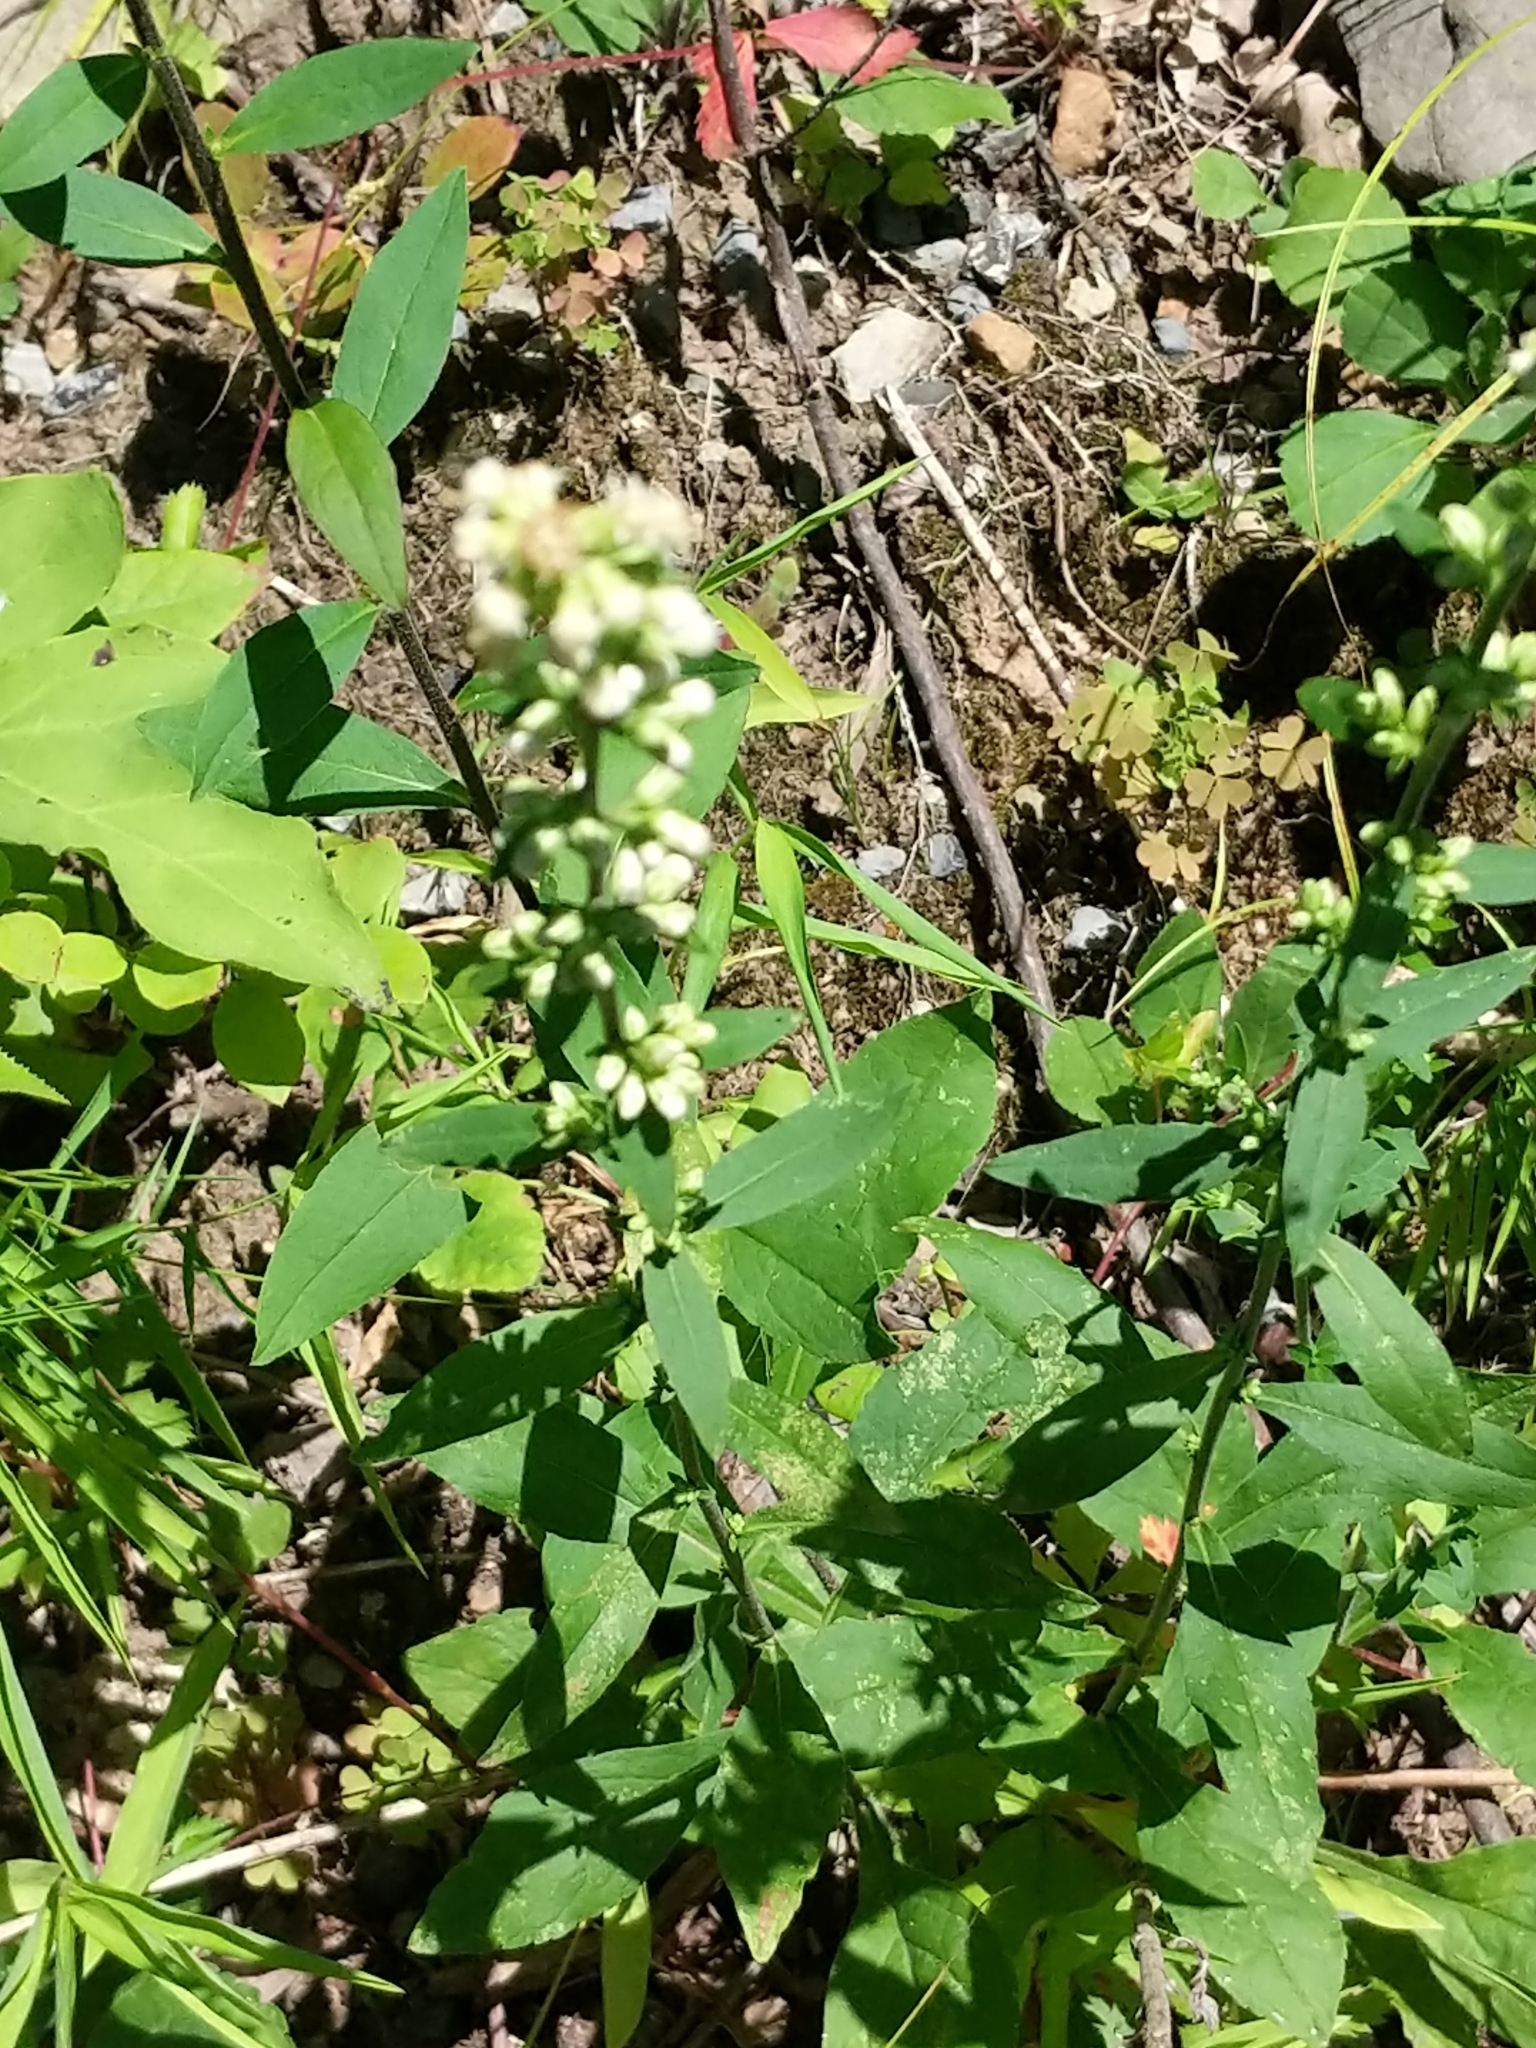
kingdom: Plantae
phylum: Tracheophyta
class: Magnoliopsida
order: Asterales
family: Asteraceae
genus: Solidago
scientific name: Solidago bicolor
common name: Silverrod
